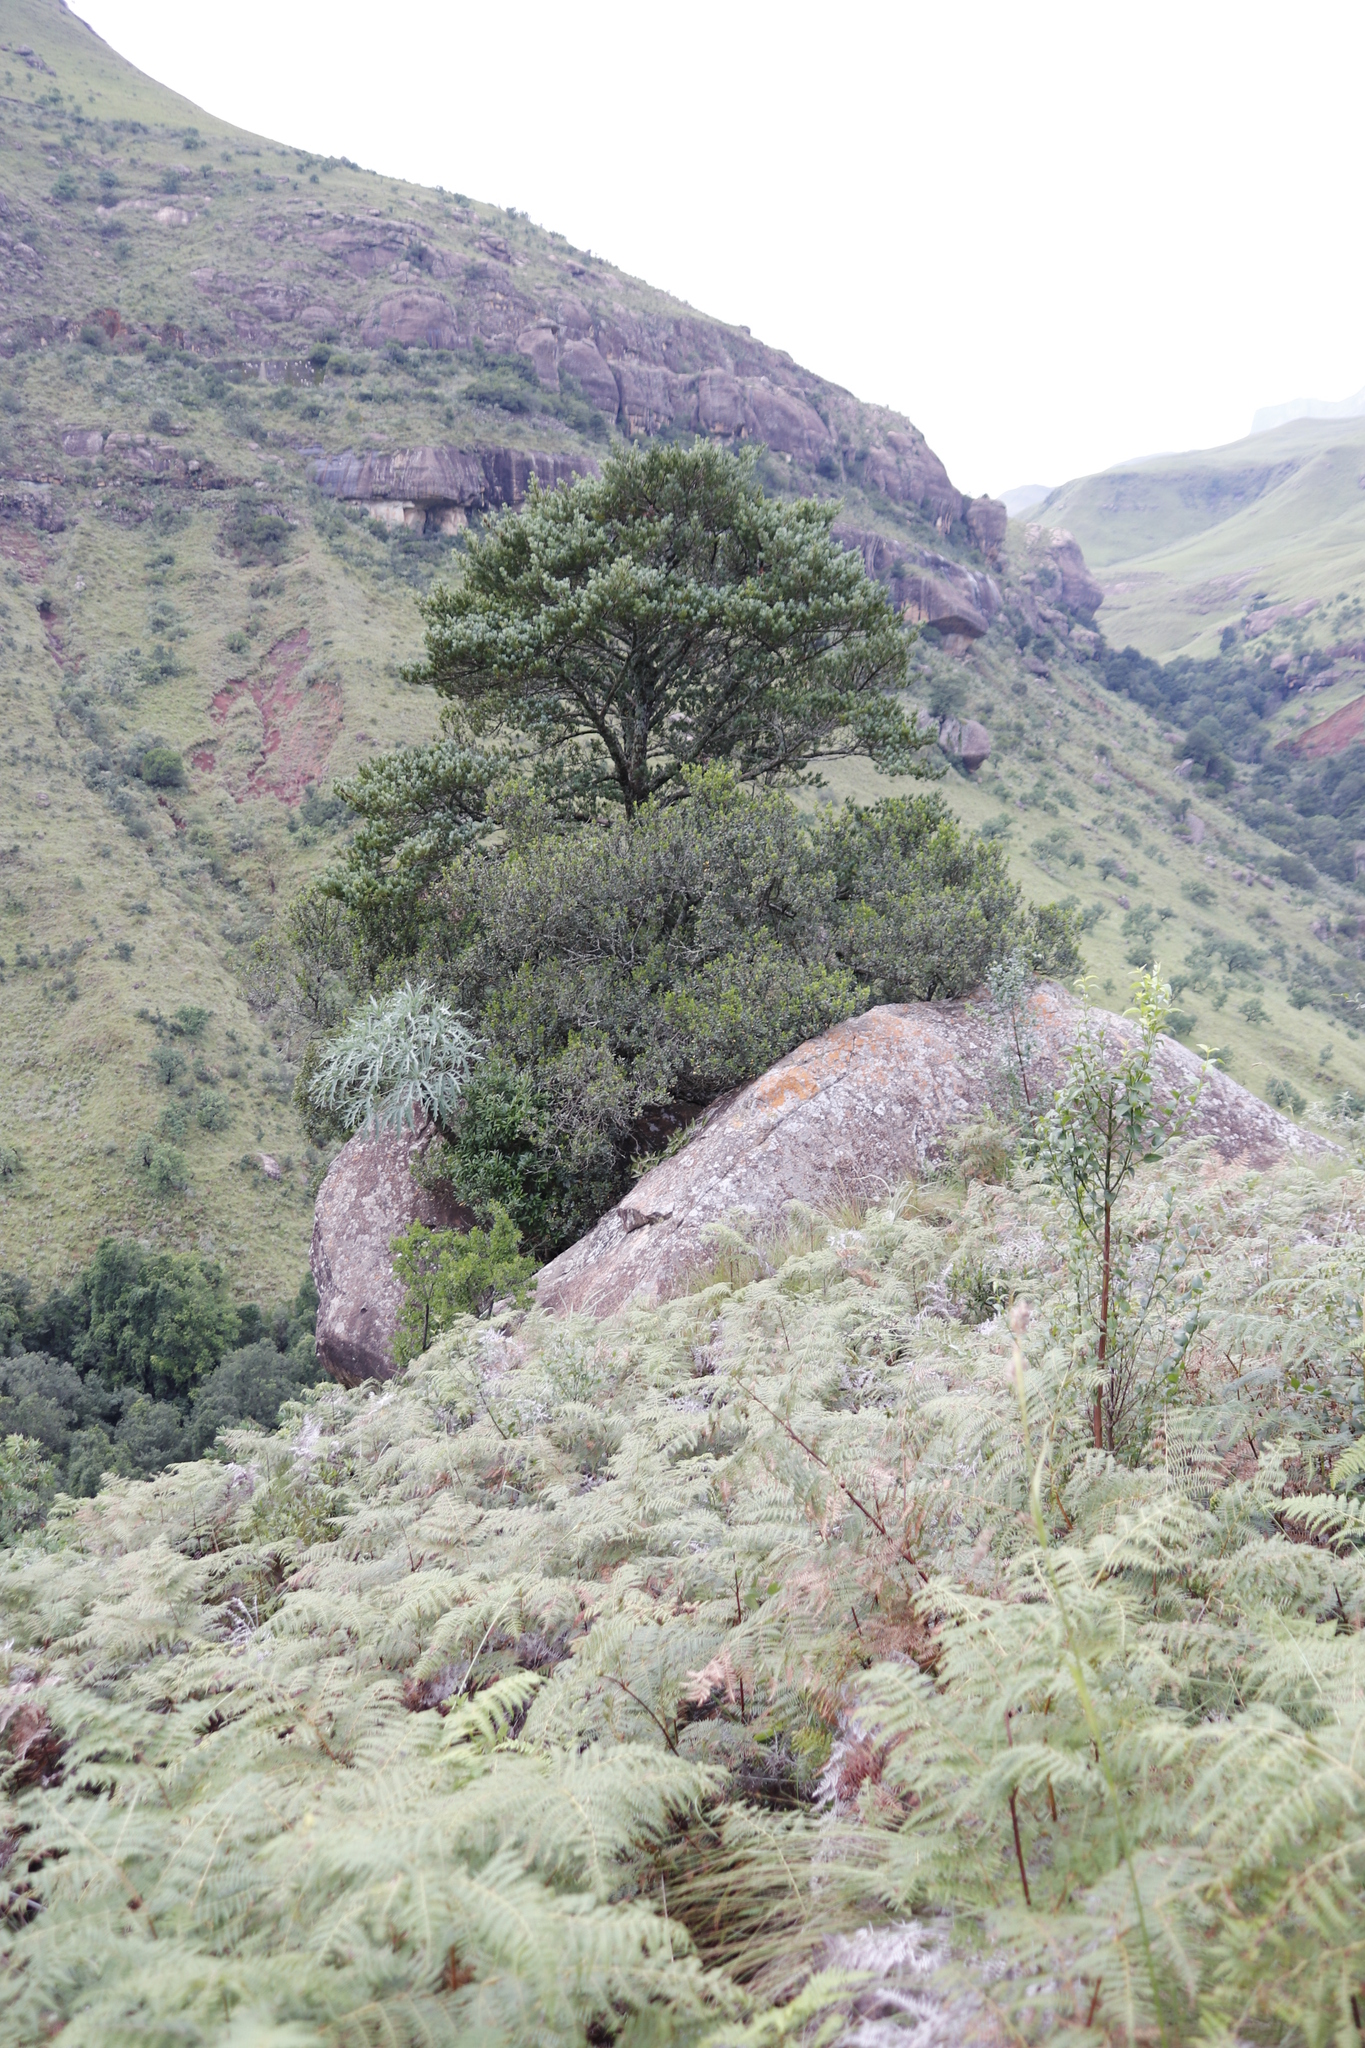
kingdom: Plantae
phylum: Tracheophyta
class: Magnoliopsida
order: Apiales
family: Araliaceae
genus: Cussonia
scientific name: Cussonia paniculata
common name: Cabbagetree
